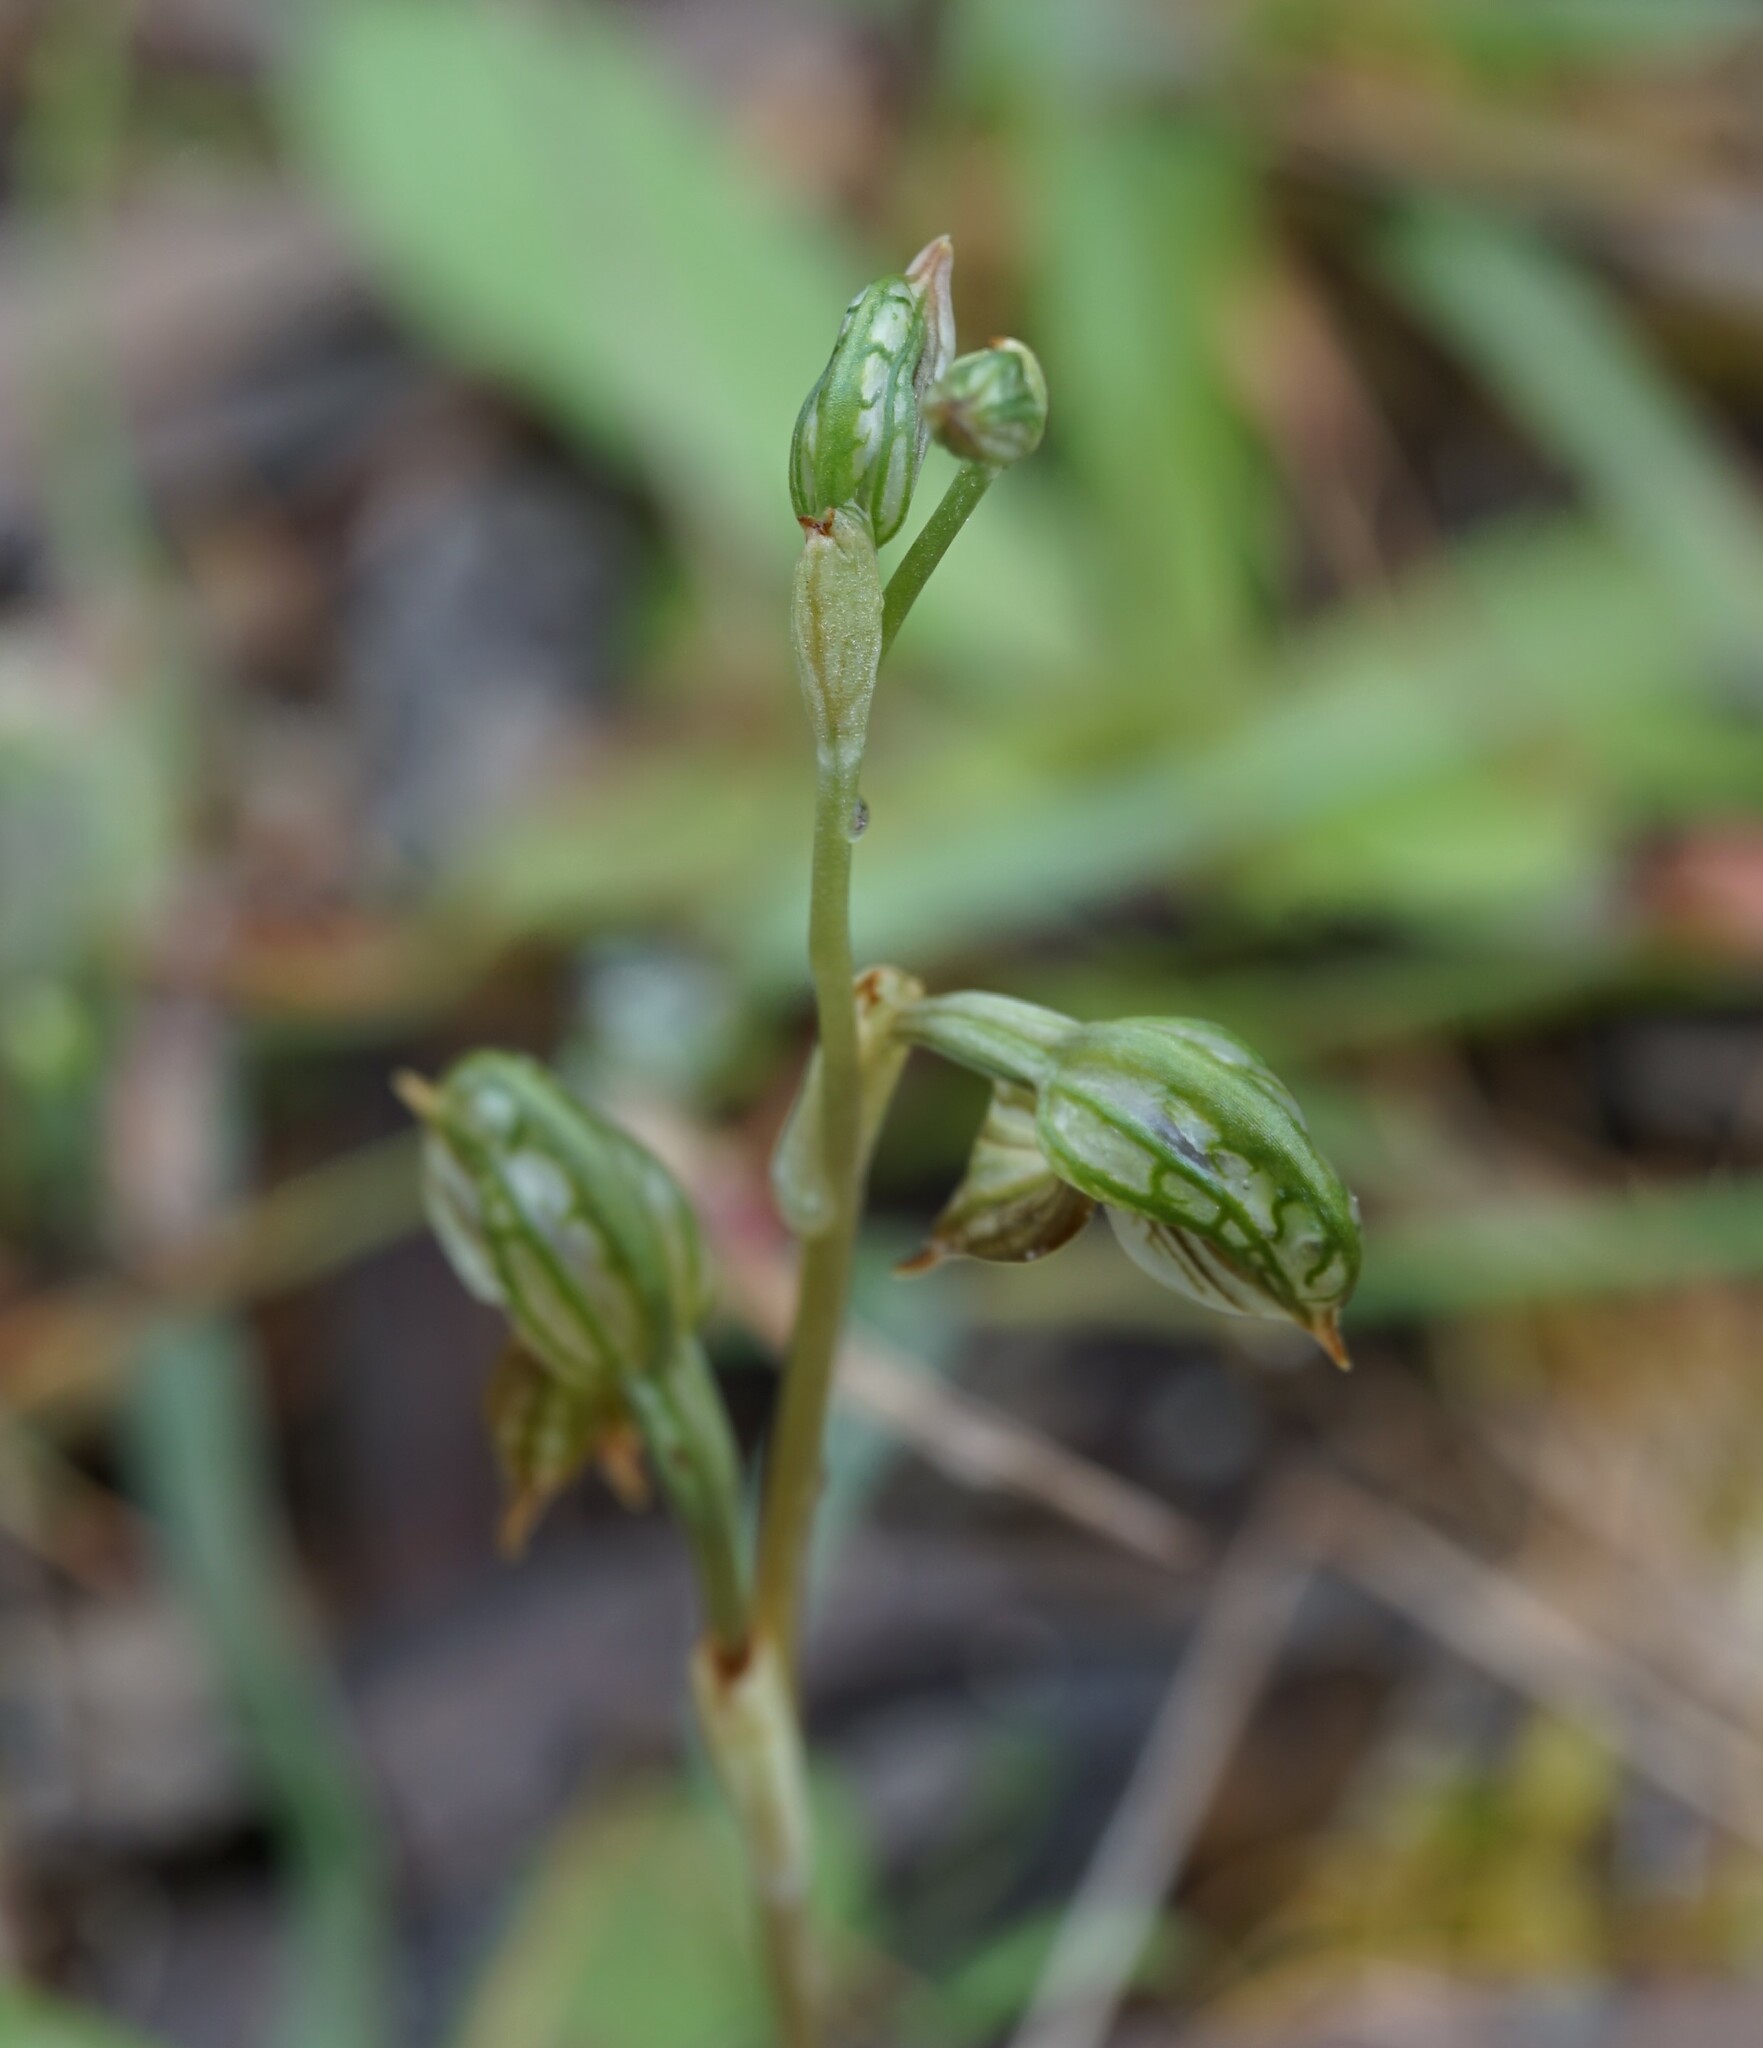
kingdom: Plantae
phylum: Tracheophyta
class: Liliopsida
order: Asparagales
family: Orchidaceae
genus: Pterostylis
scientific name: Pterostylis ferruginea
